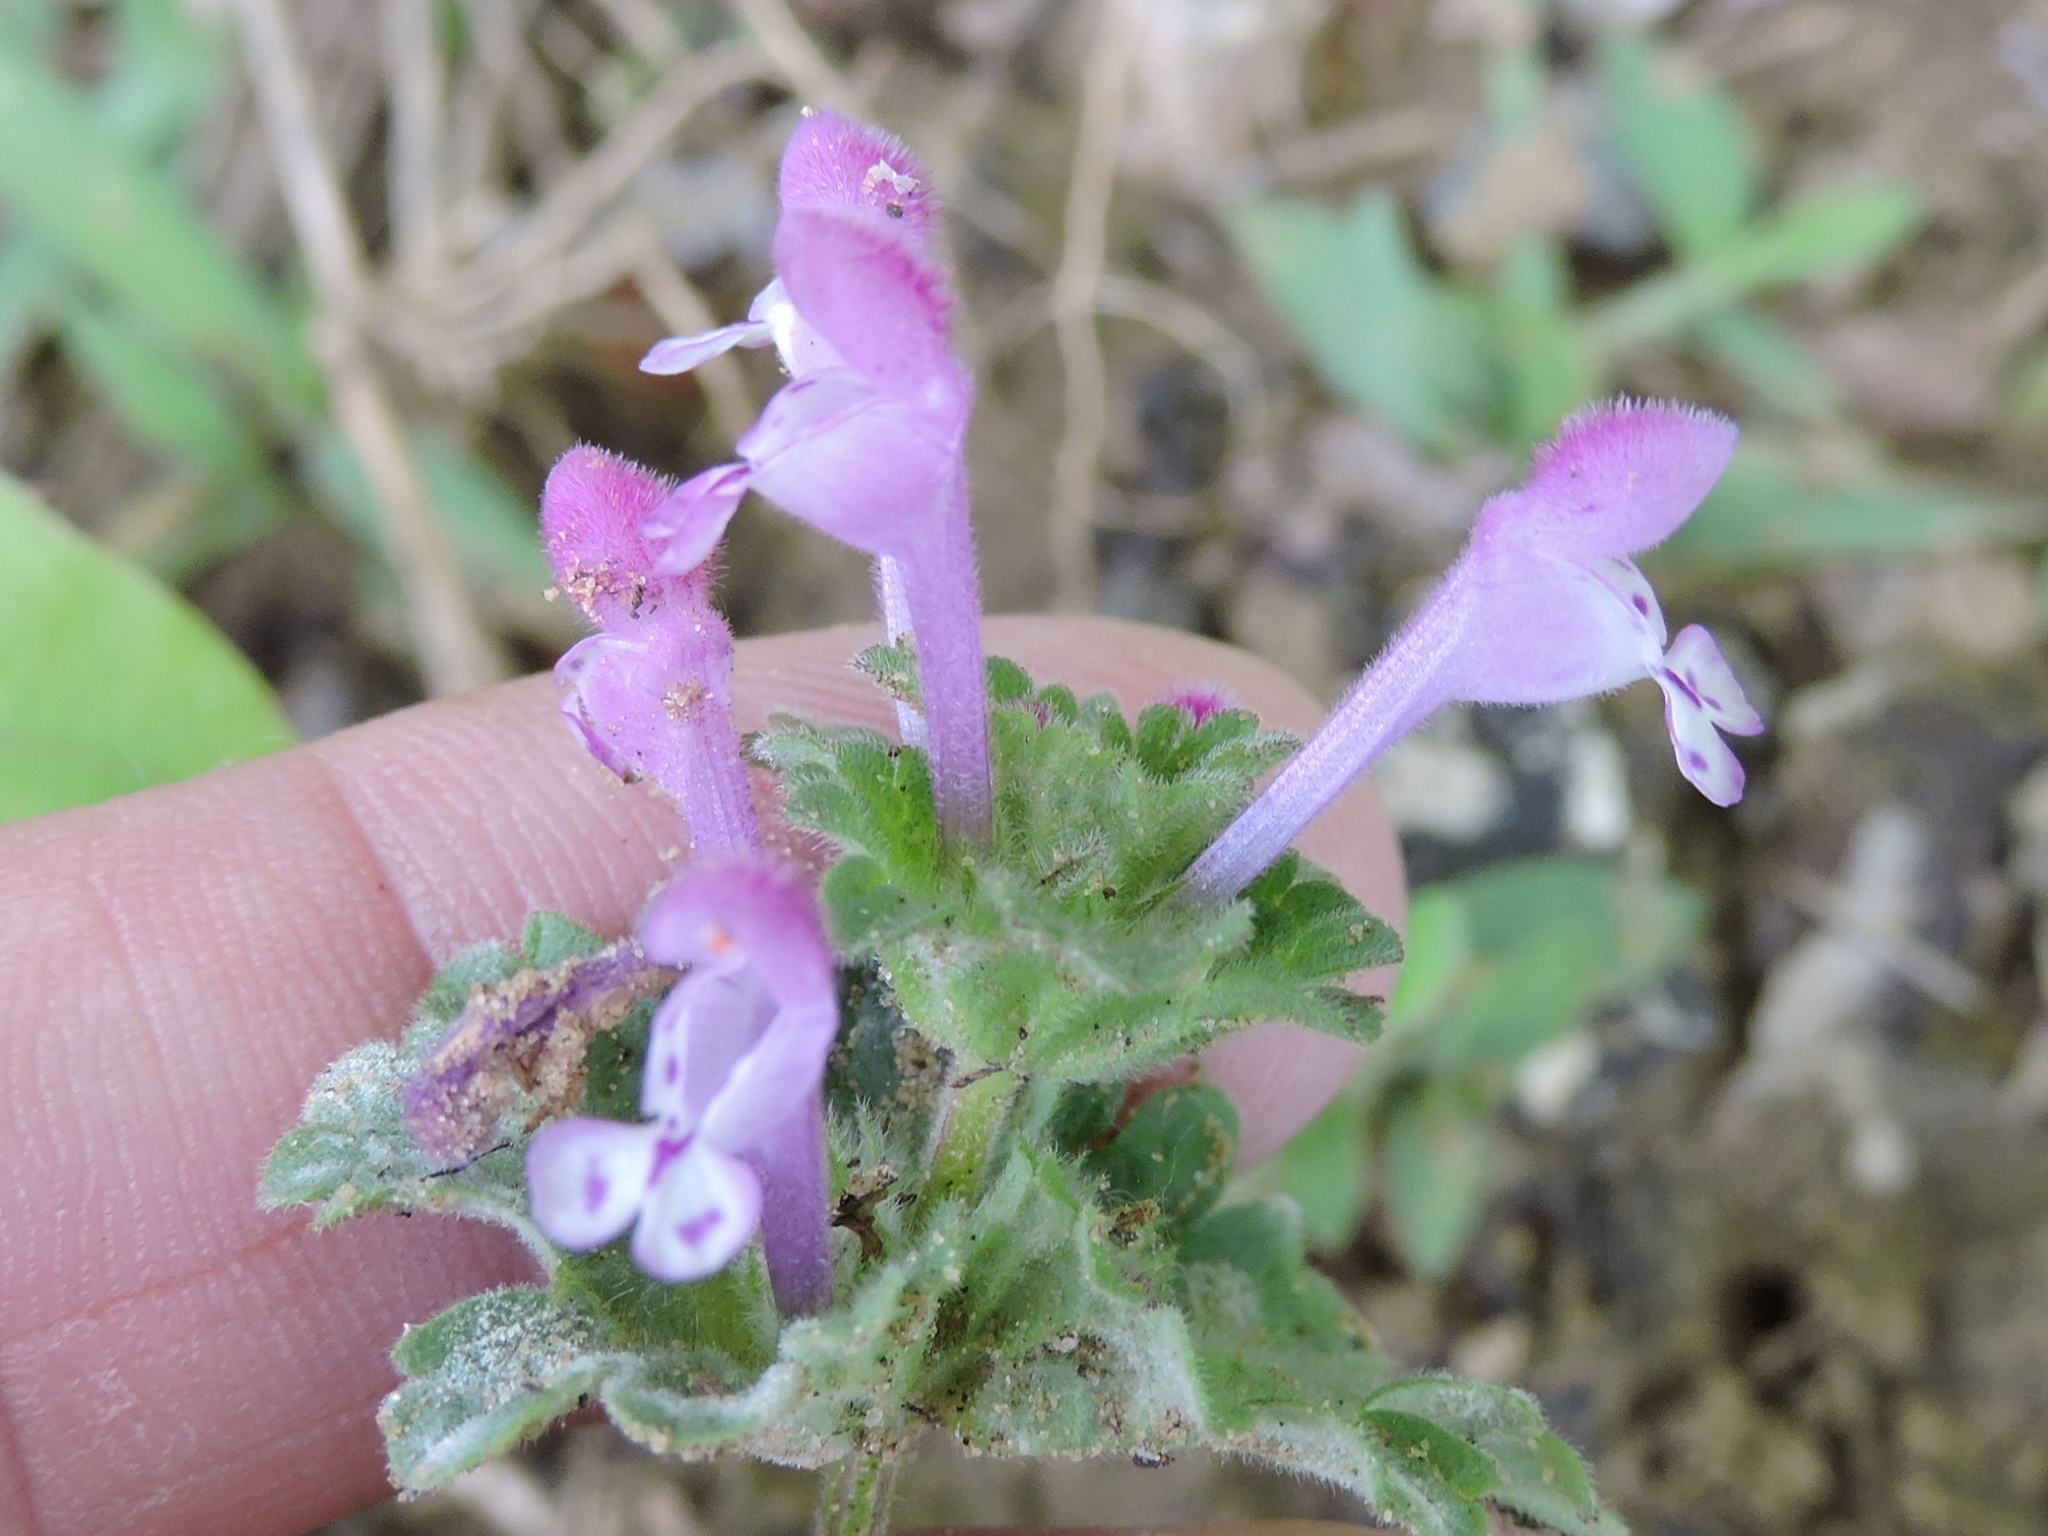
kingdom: Plantae
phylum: Tracheophyta
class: Magnoliopsida
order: Lamiales
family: Lamiaceae
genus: Lamium
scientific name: Lamium amplexicaule
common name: Henbit dead-nettle
